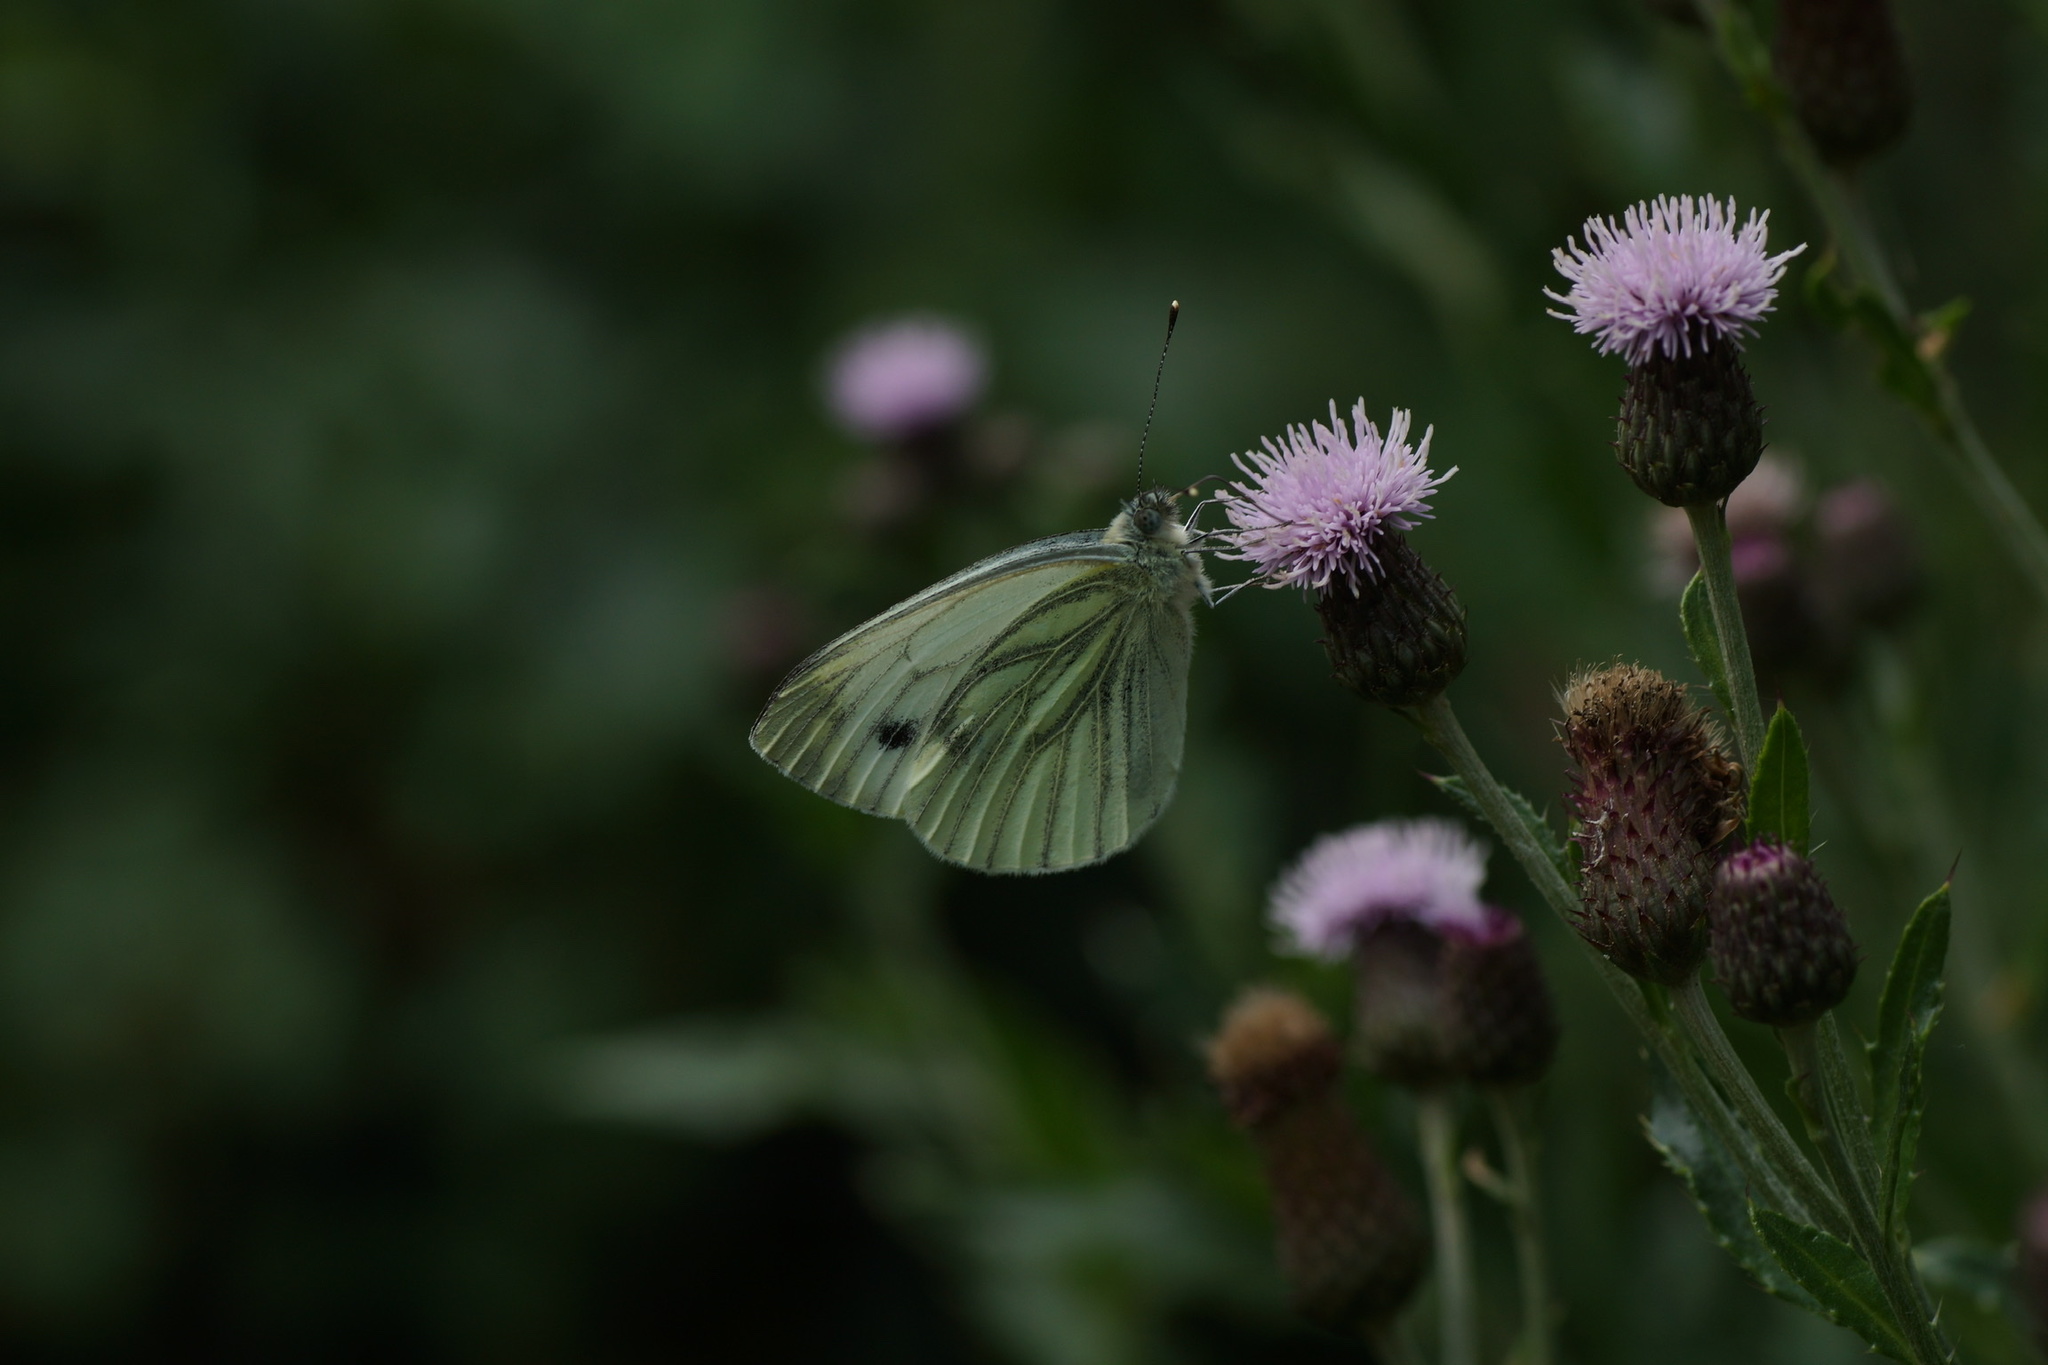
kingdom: Animalia
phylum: Arthropoda
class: Insecta
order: Lepidoptera
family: Pieridae
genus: Pieris
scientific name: Pieris napi
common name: Green-veined white
